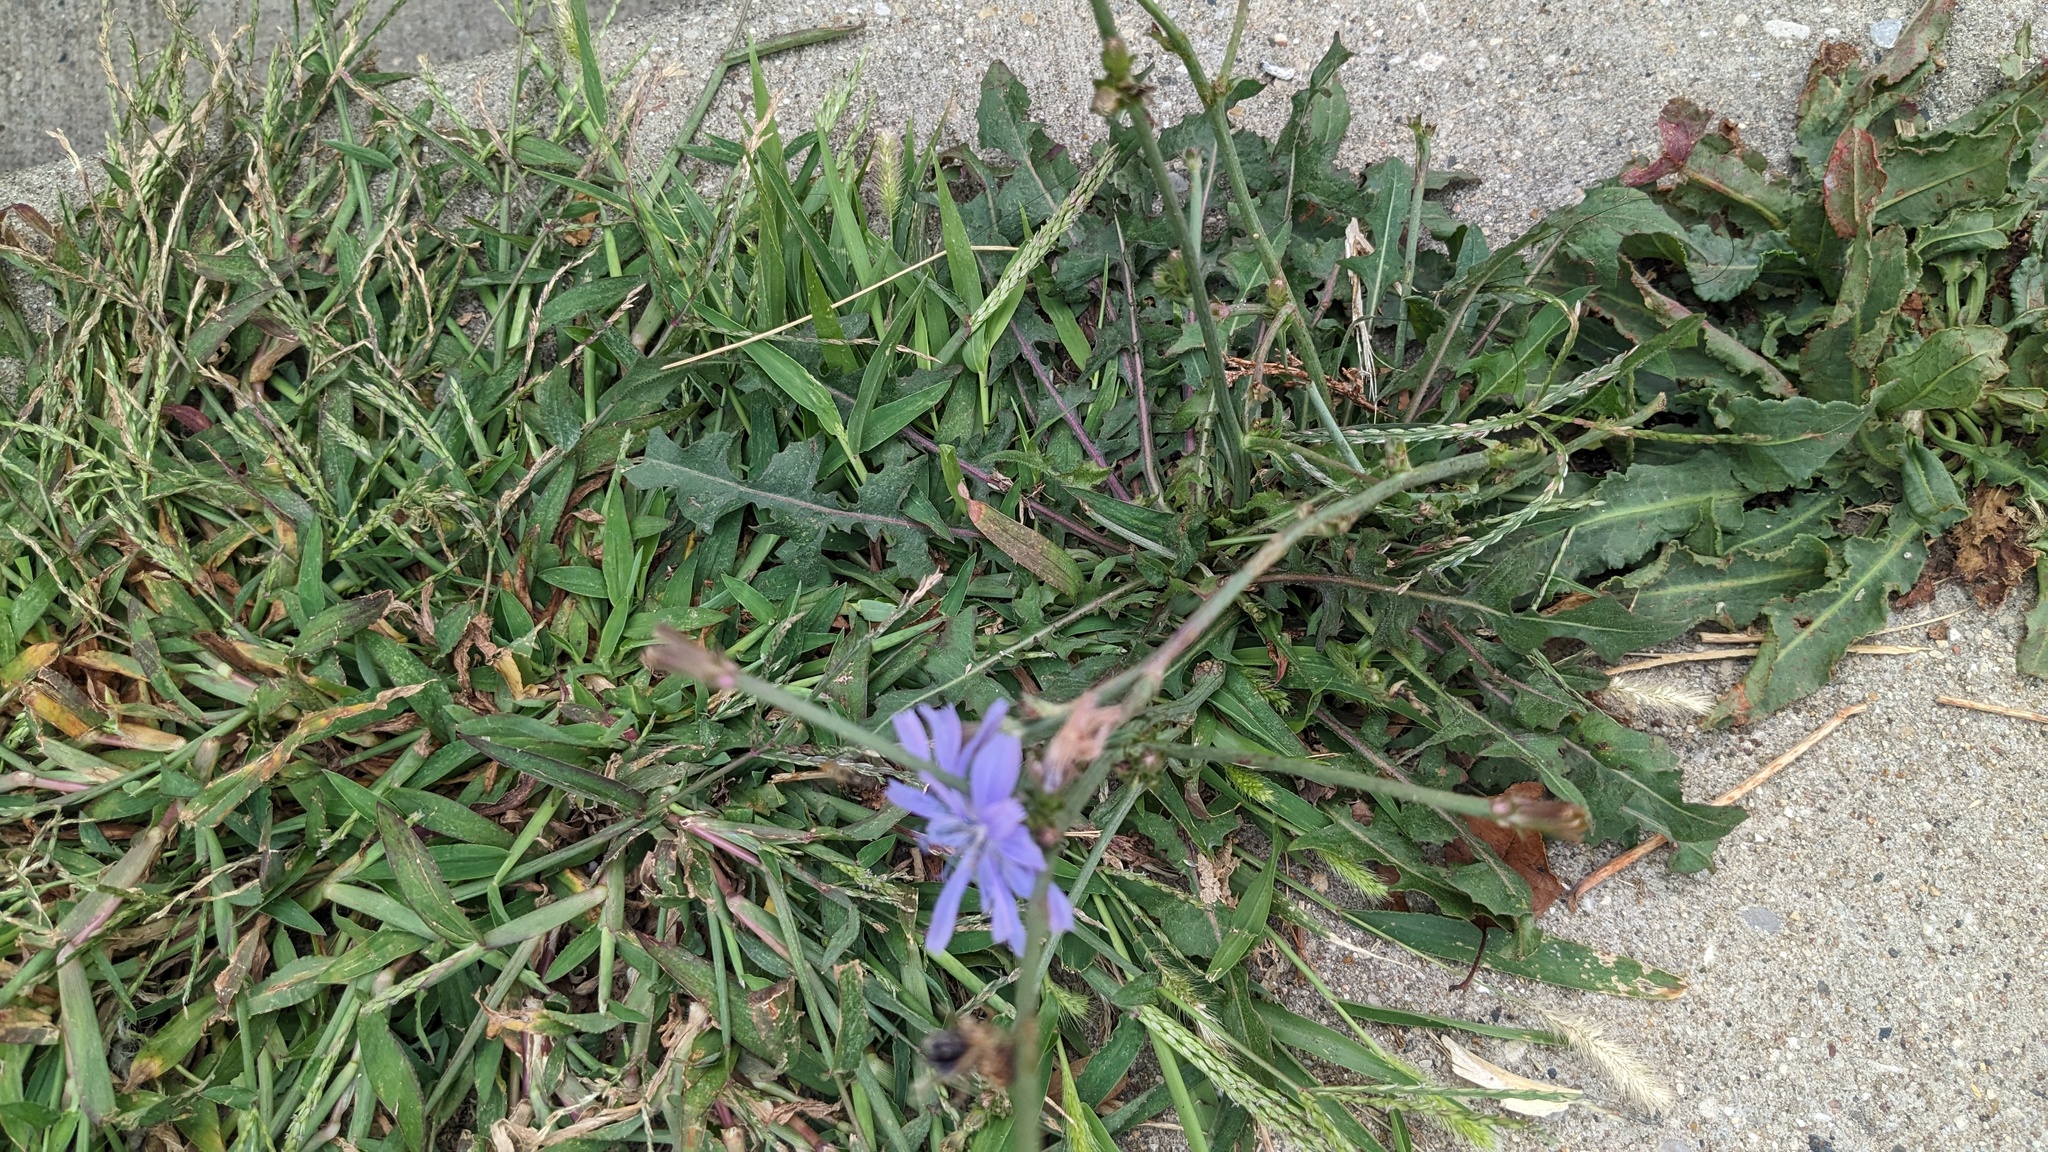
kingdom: Plantae
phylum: Tracheophyta
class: Magnoliopsida
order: Asterales
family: Asteraceae
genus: Cichorium
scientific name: Cichorium intybus
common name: Chicory
